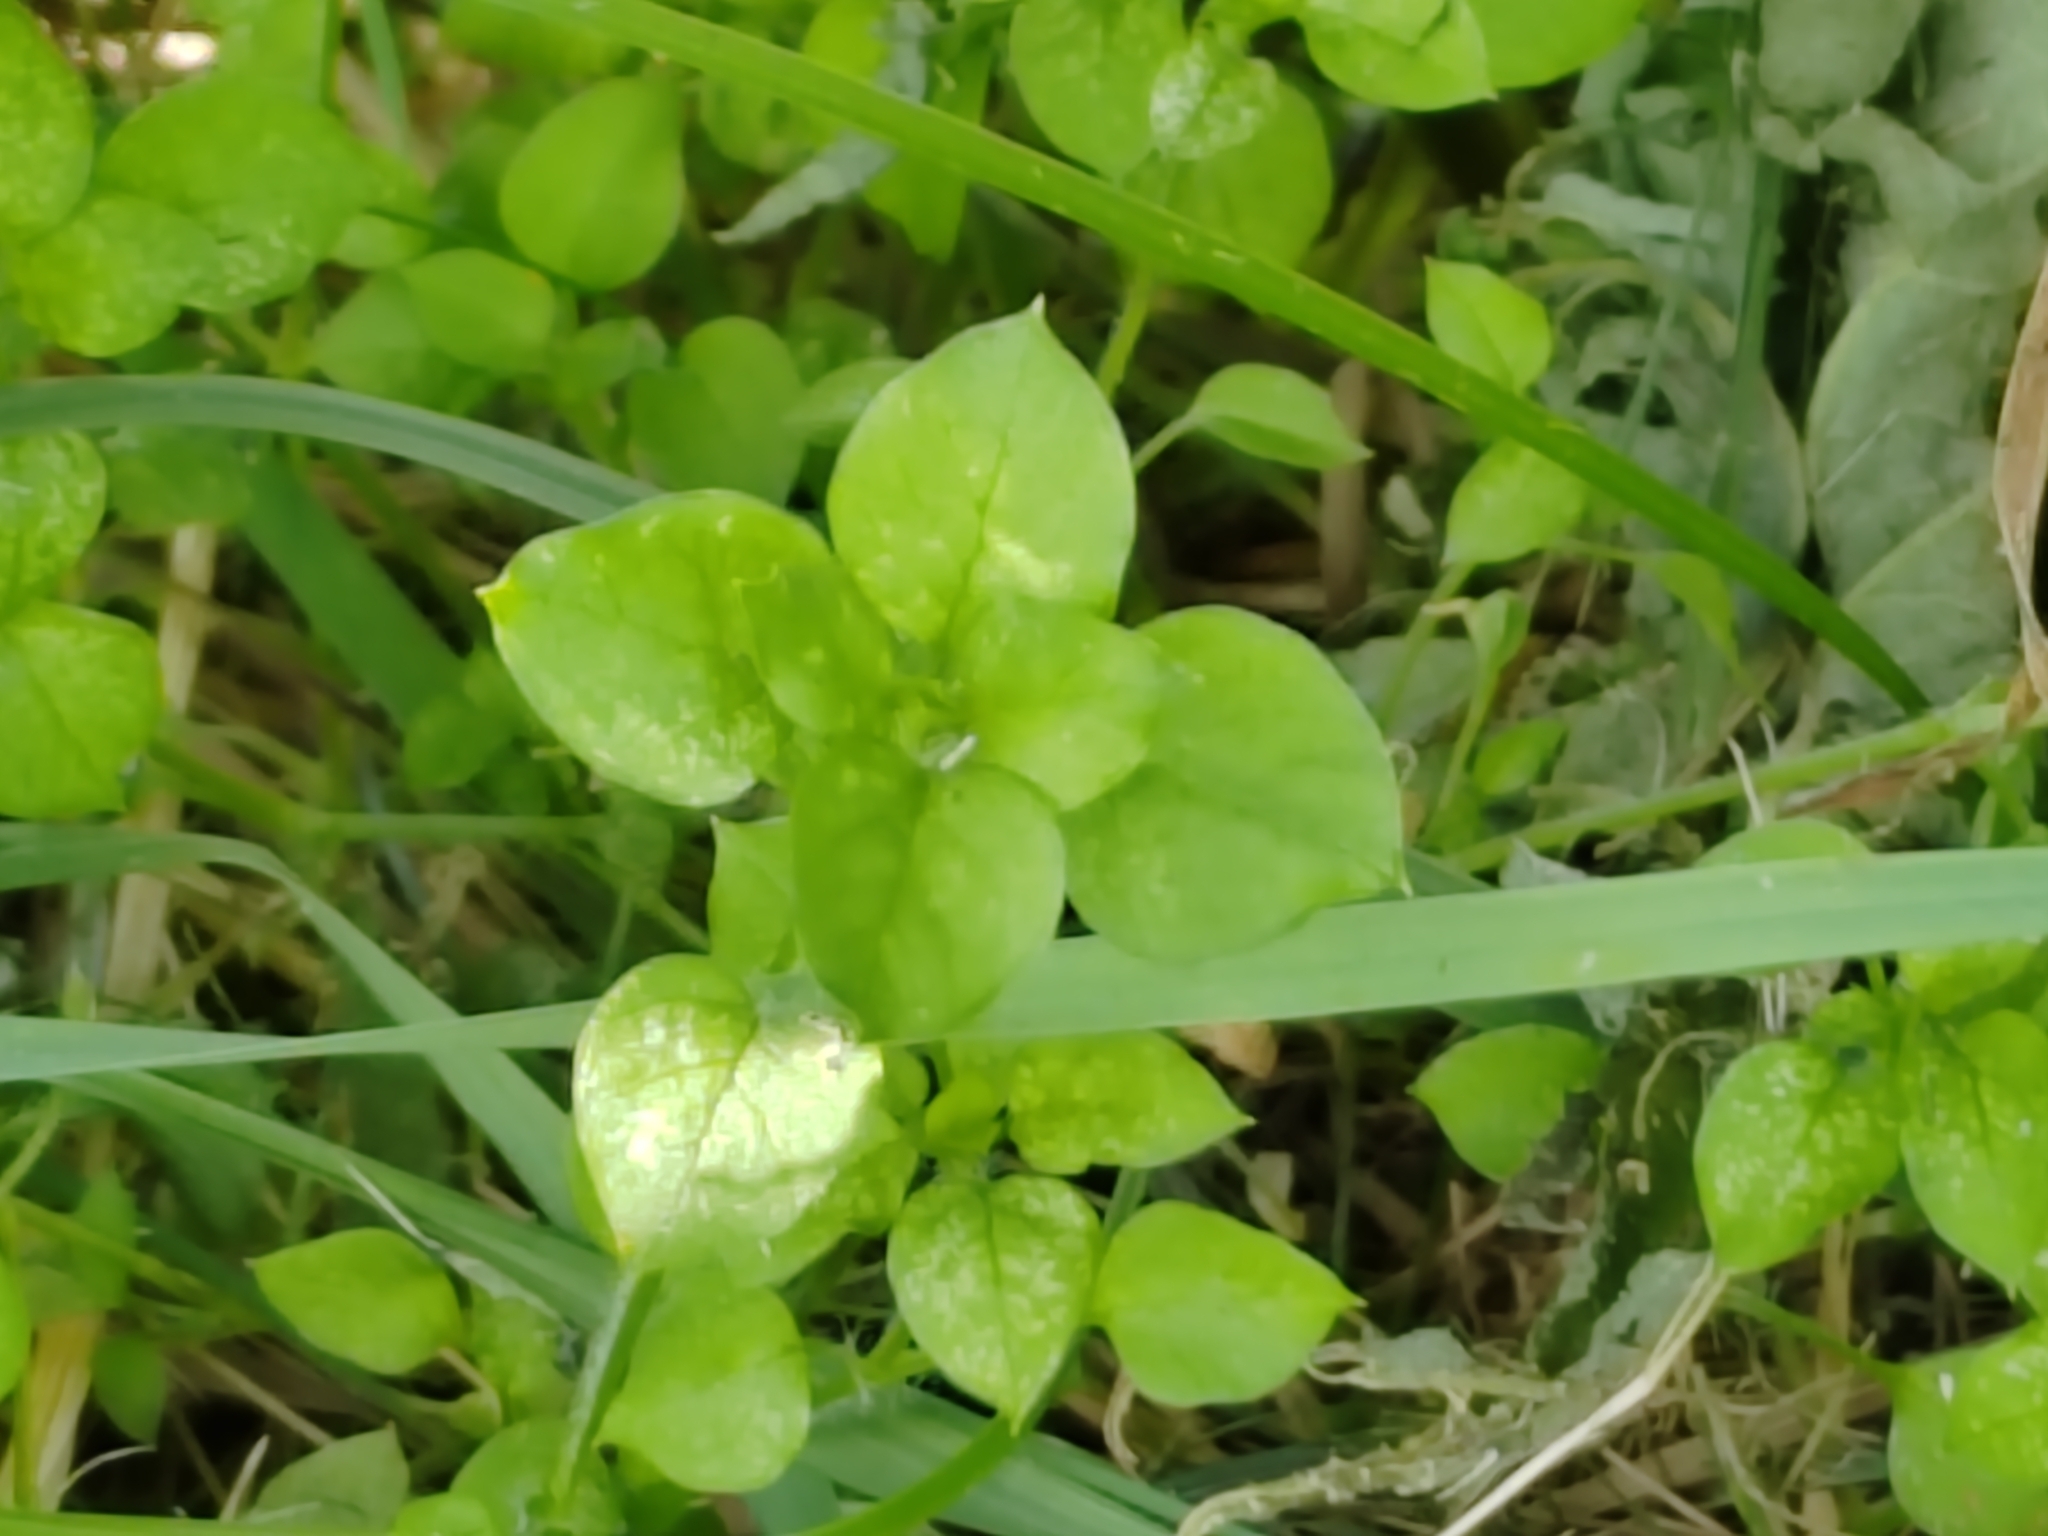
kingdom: Plantae
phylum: Tracheophyta
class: Magnoliopsida
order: Caryophyllales
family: Caryophyllaceae
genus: Stellaria
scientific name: Stellaria media
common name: Common chickweed
